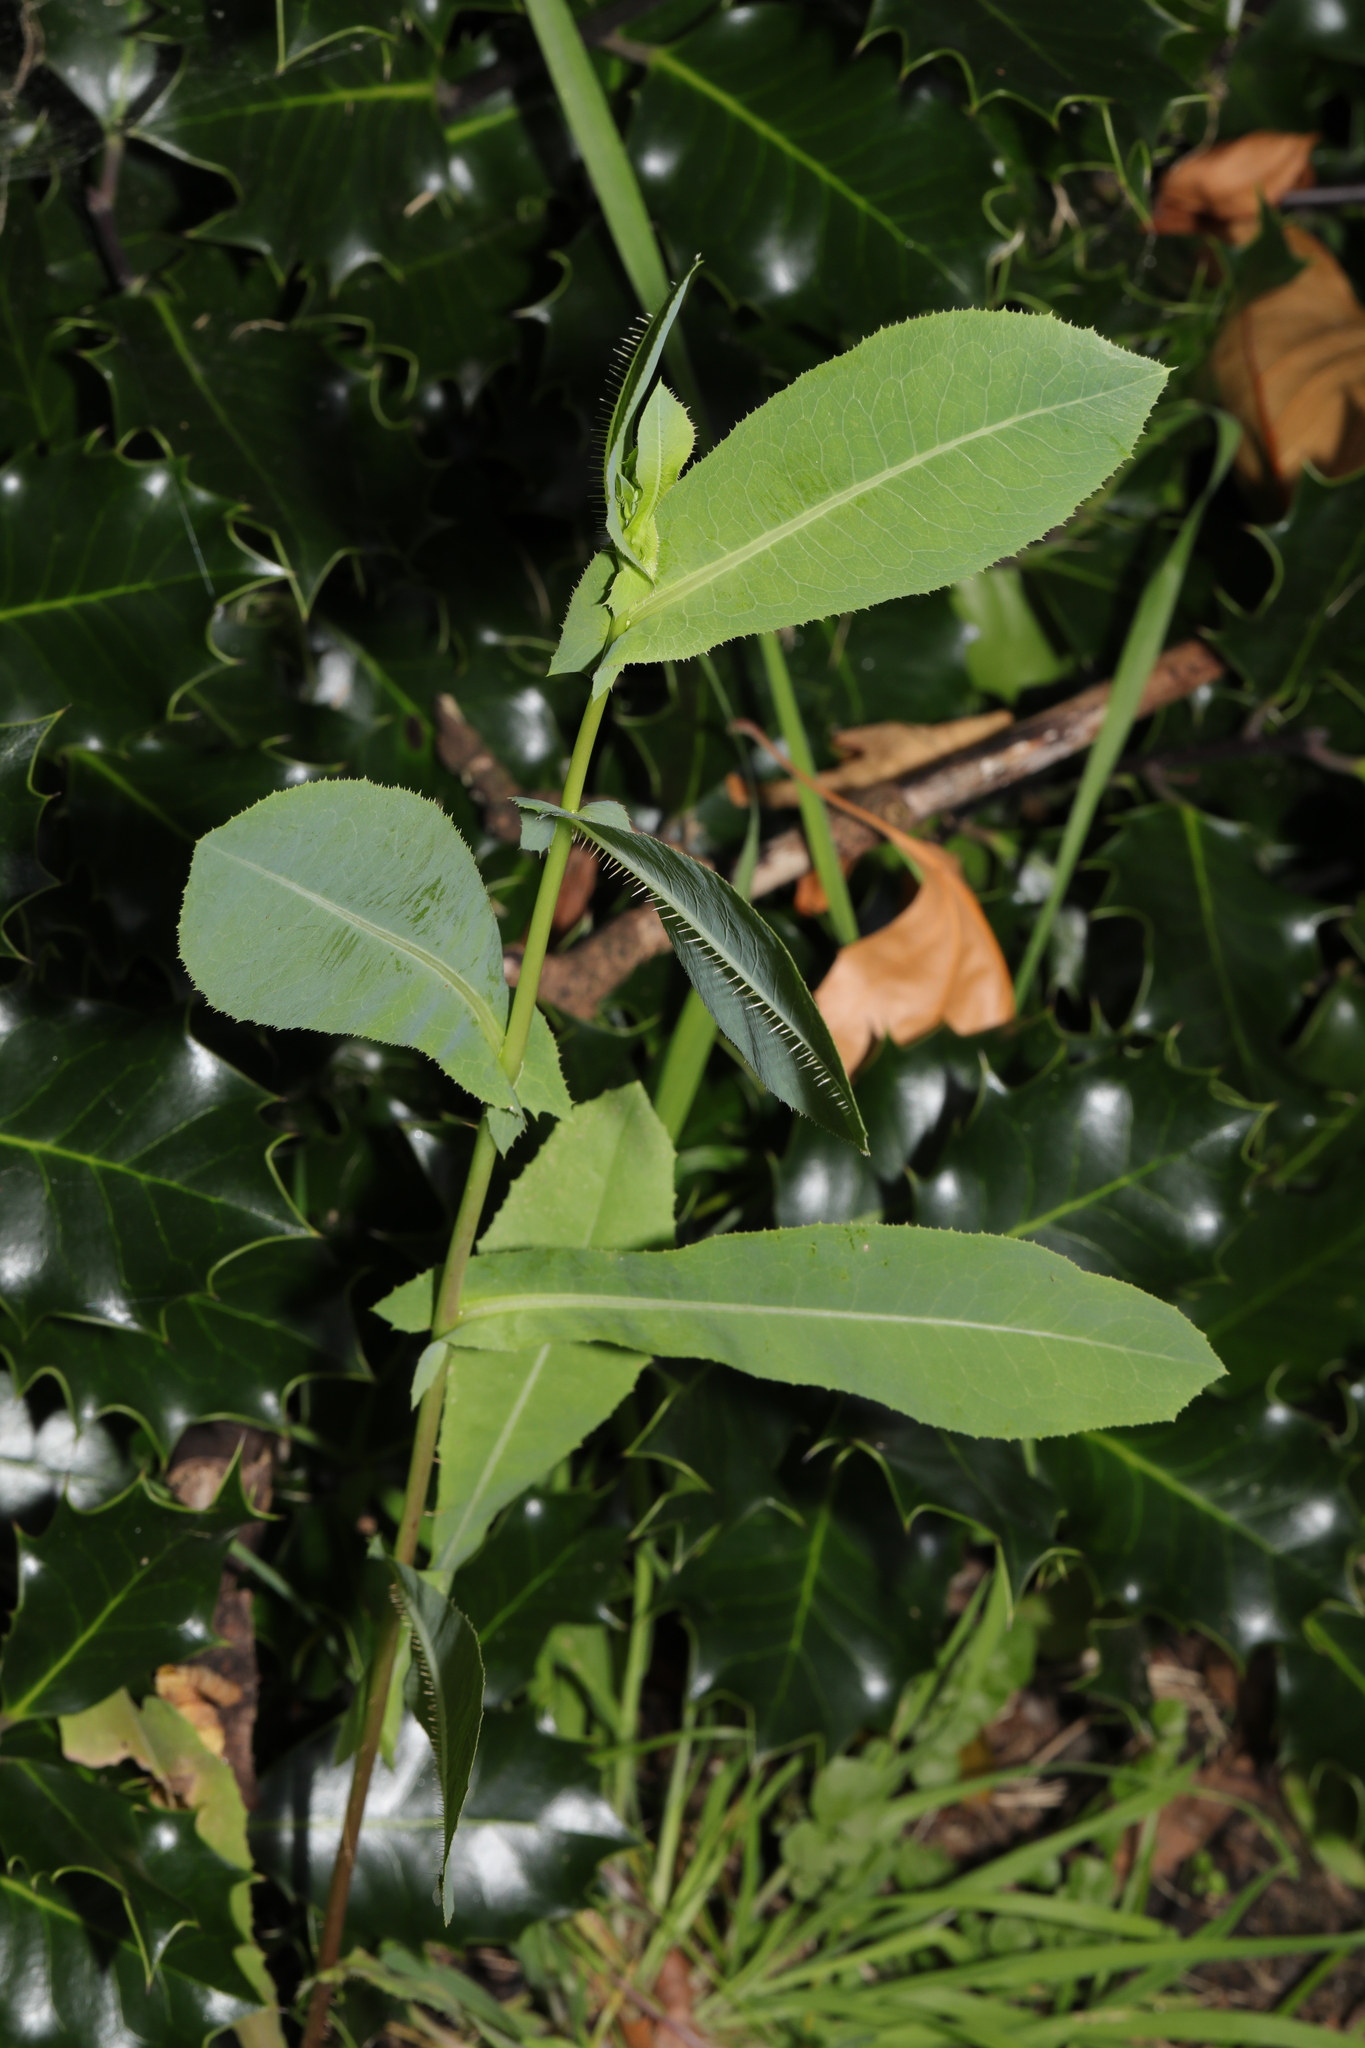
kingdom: Plantae
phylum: Tracheophyta
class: Magnoliopsida
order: Asterales
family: Asteraceae
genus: Lactuca
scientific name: Lactuca serriola
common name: Prickly lettuce
